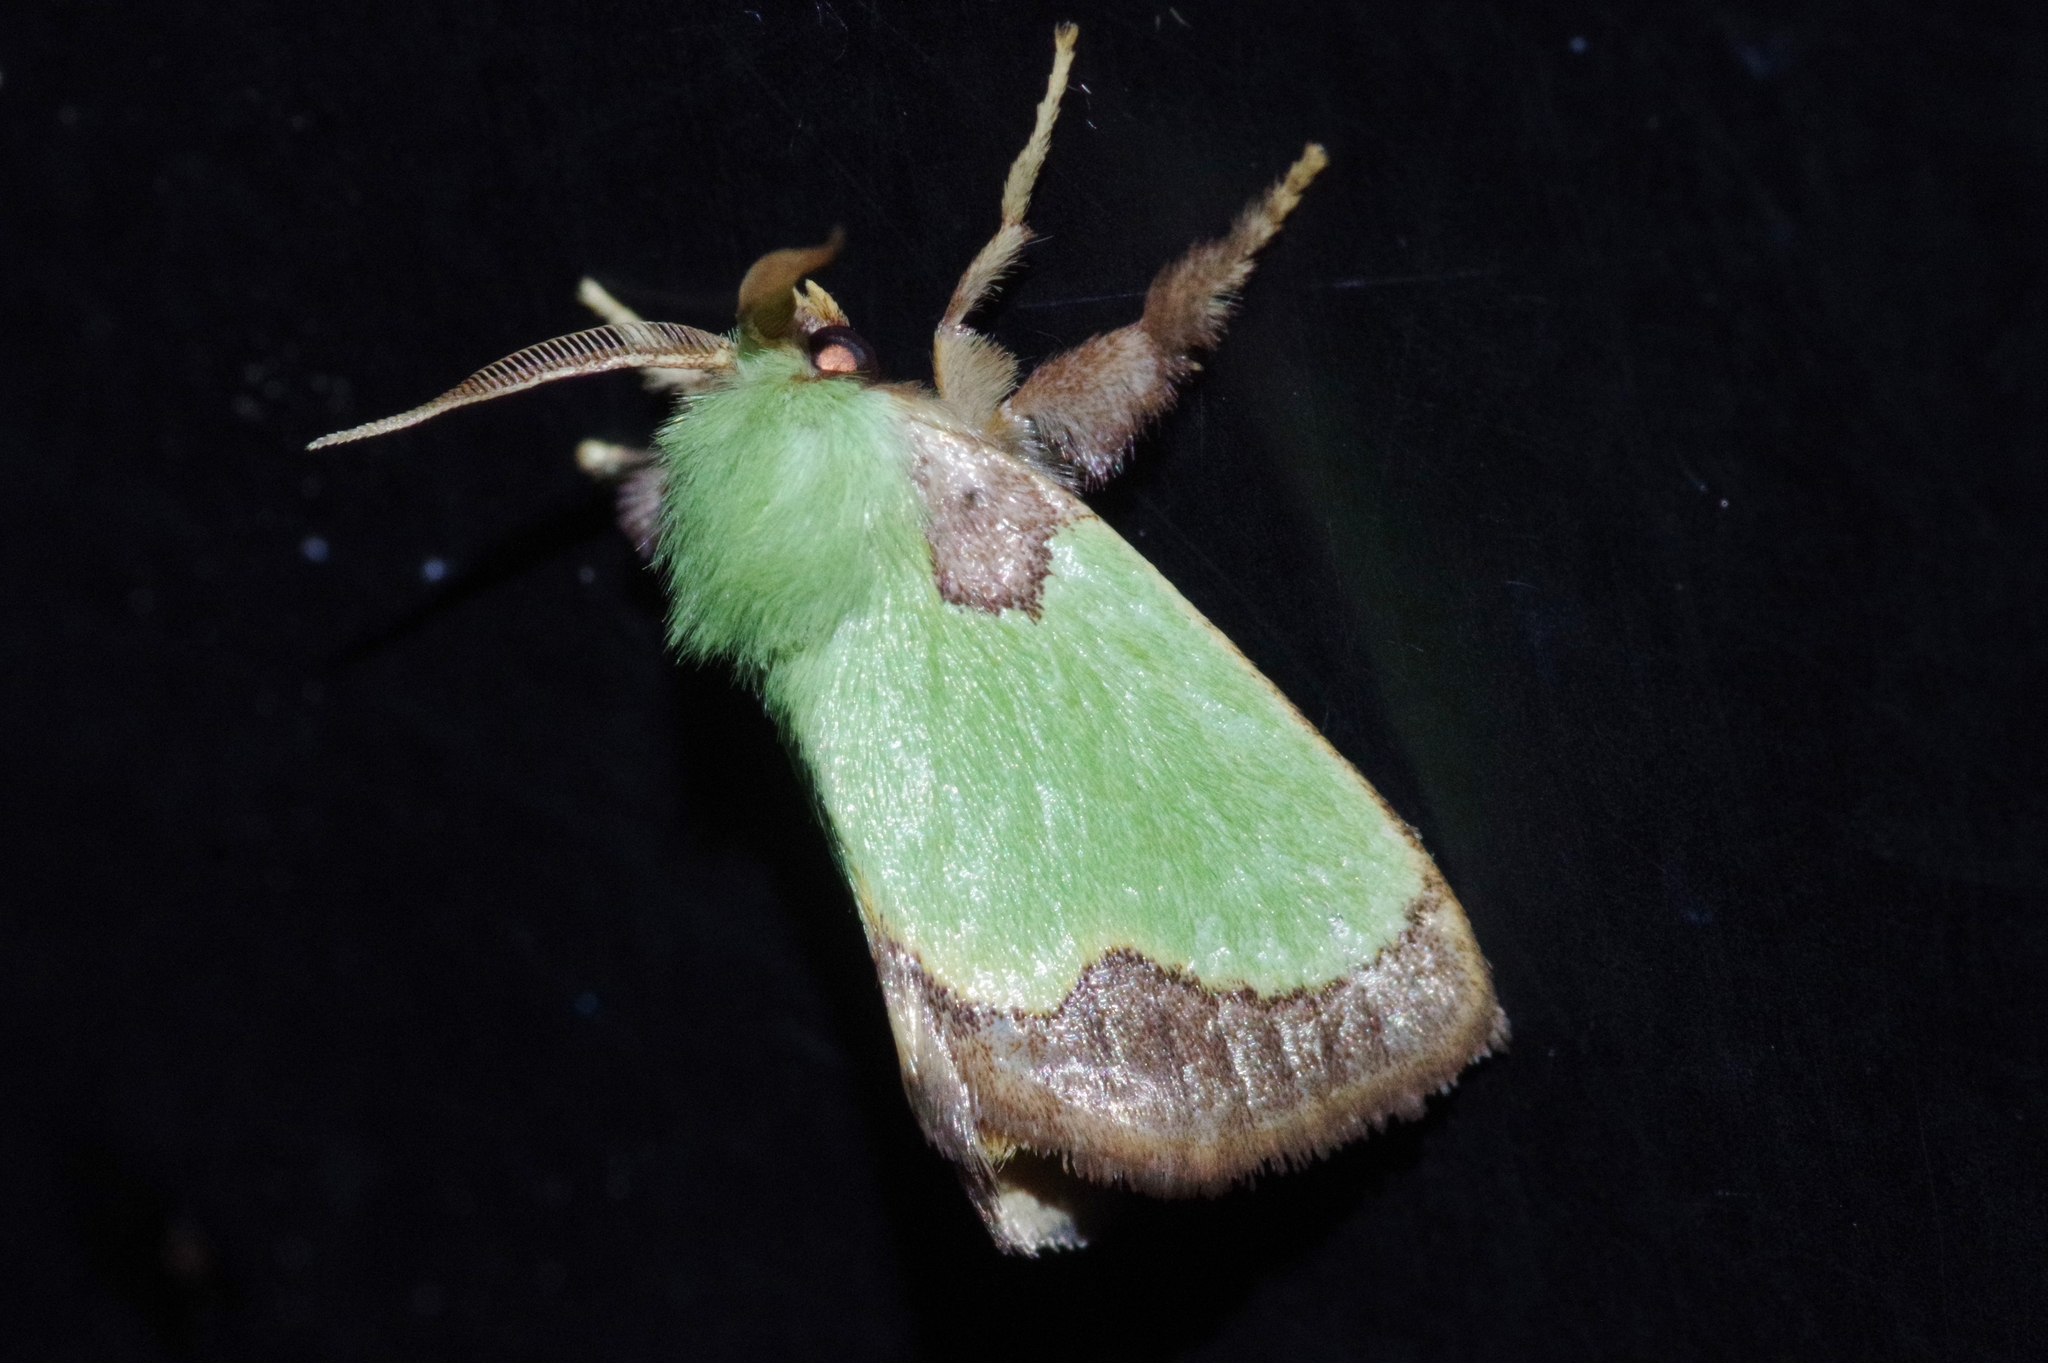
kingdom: Animalia
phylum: Arthropoda
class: Insecta
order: Lepidoptera
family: Limacodidae
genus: Parasa
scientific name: Parasa hilarula
